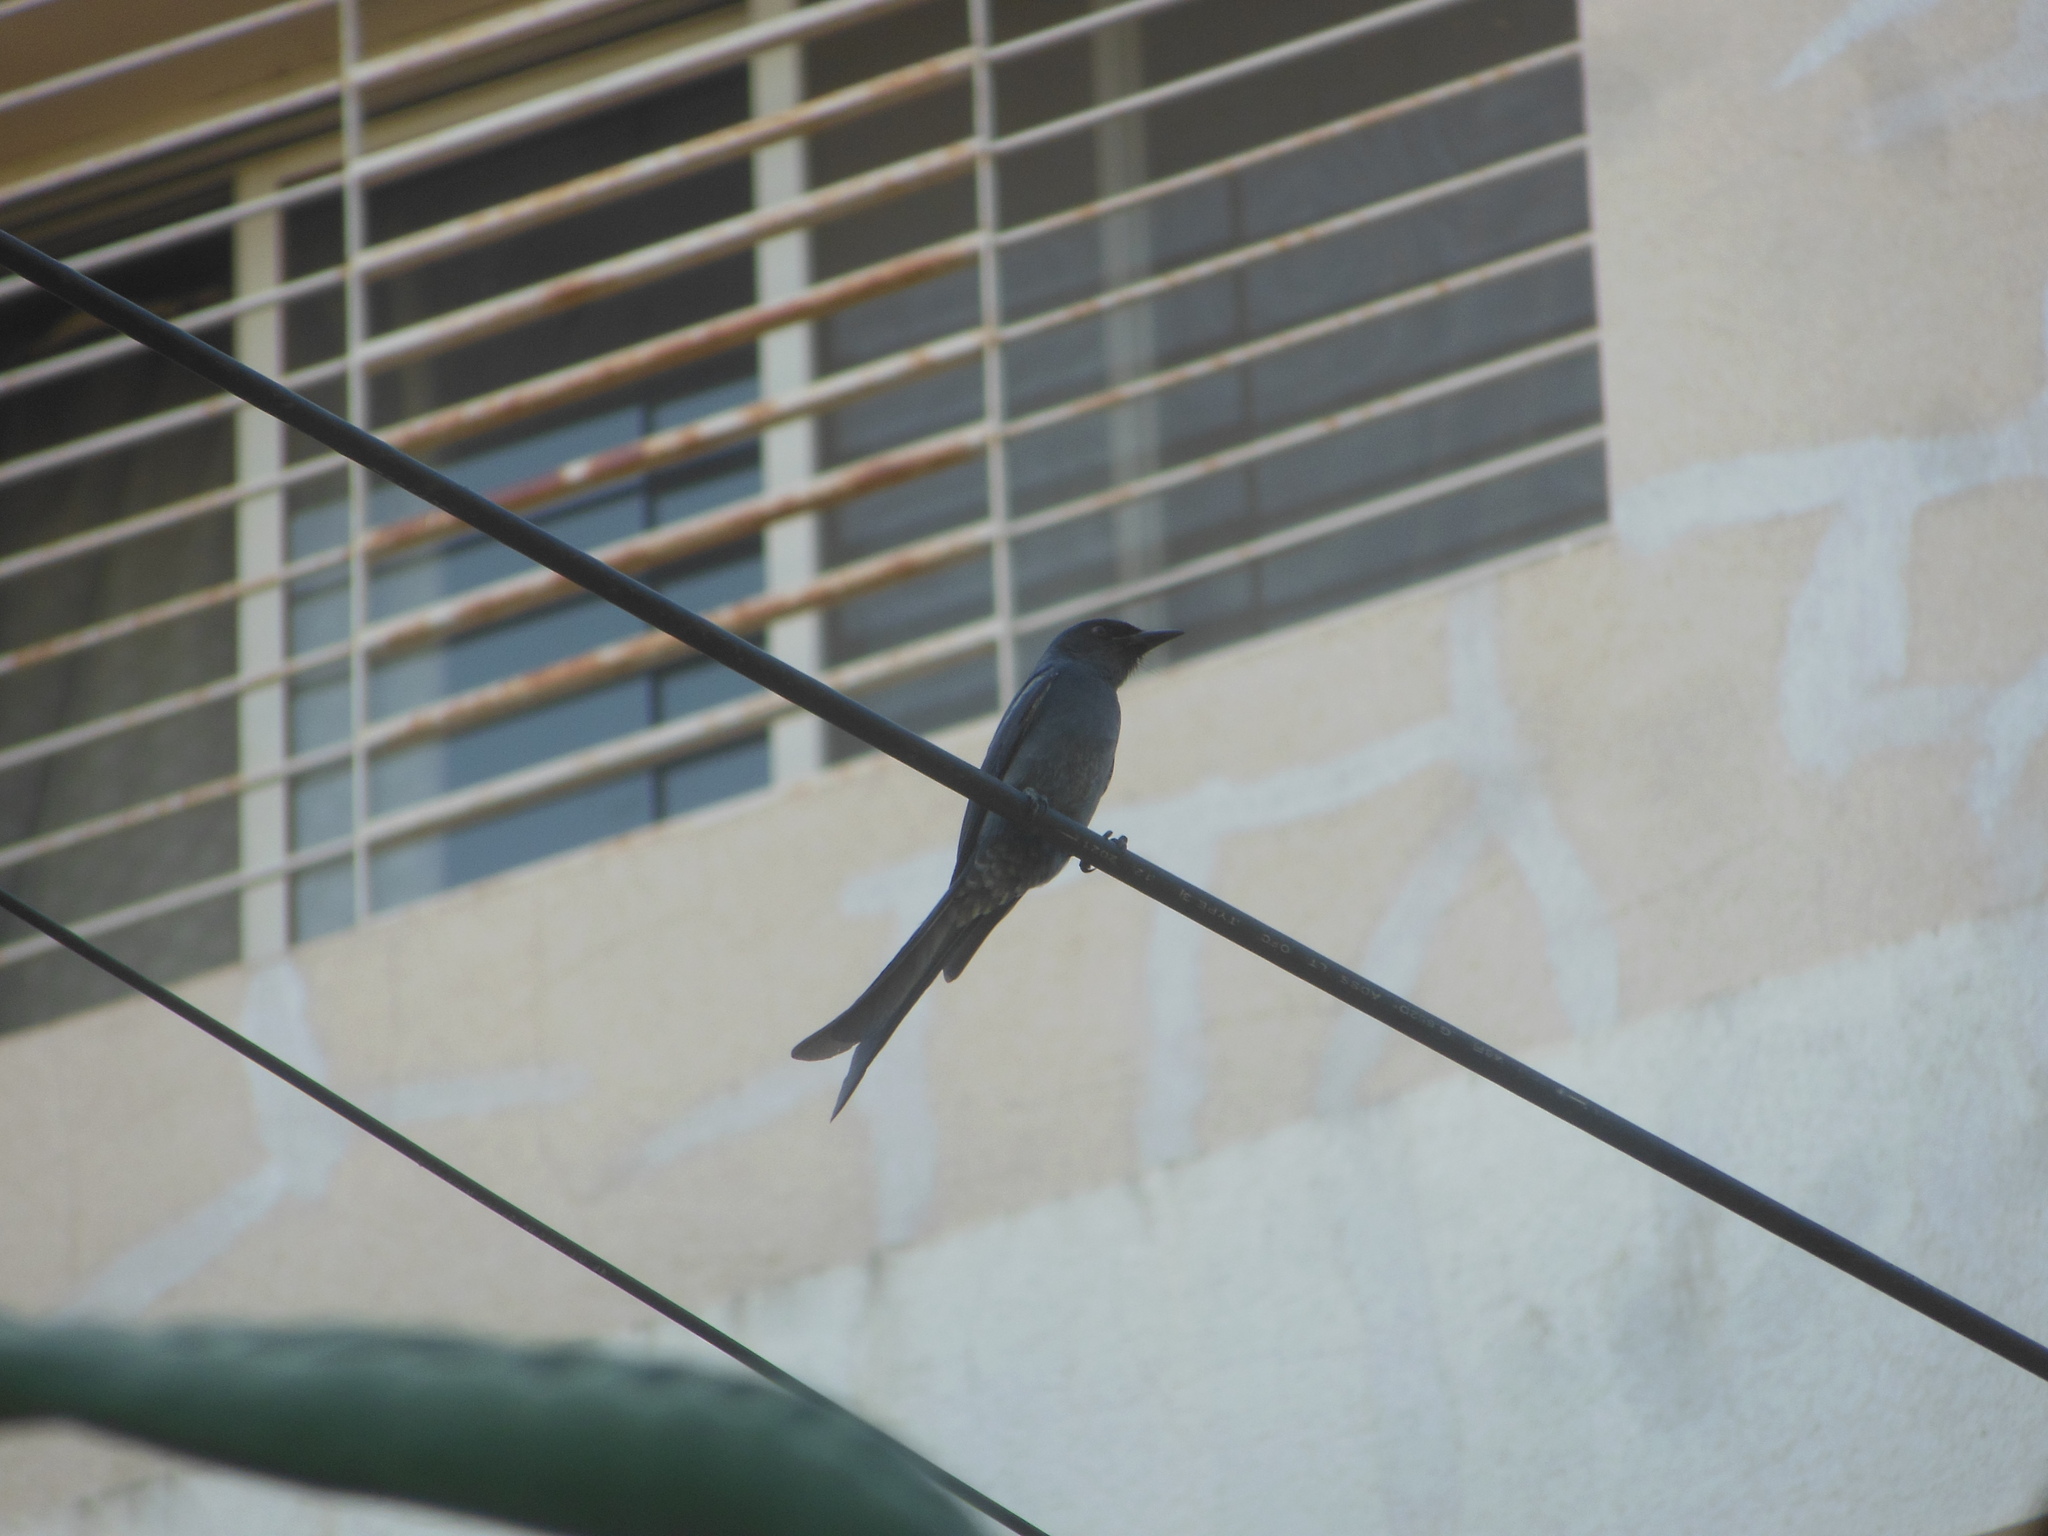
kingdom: Animalia
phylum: Chordata
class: Aves
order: Passeriformes
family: Dicruridae
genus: Dicrurus
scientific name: Dicrurus leucophaeus
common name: Ashy drongo
